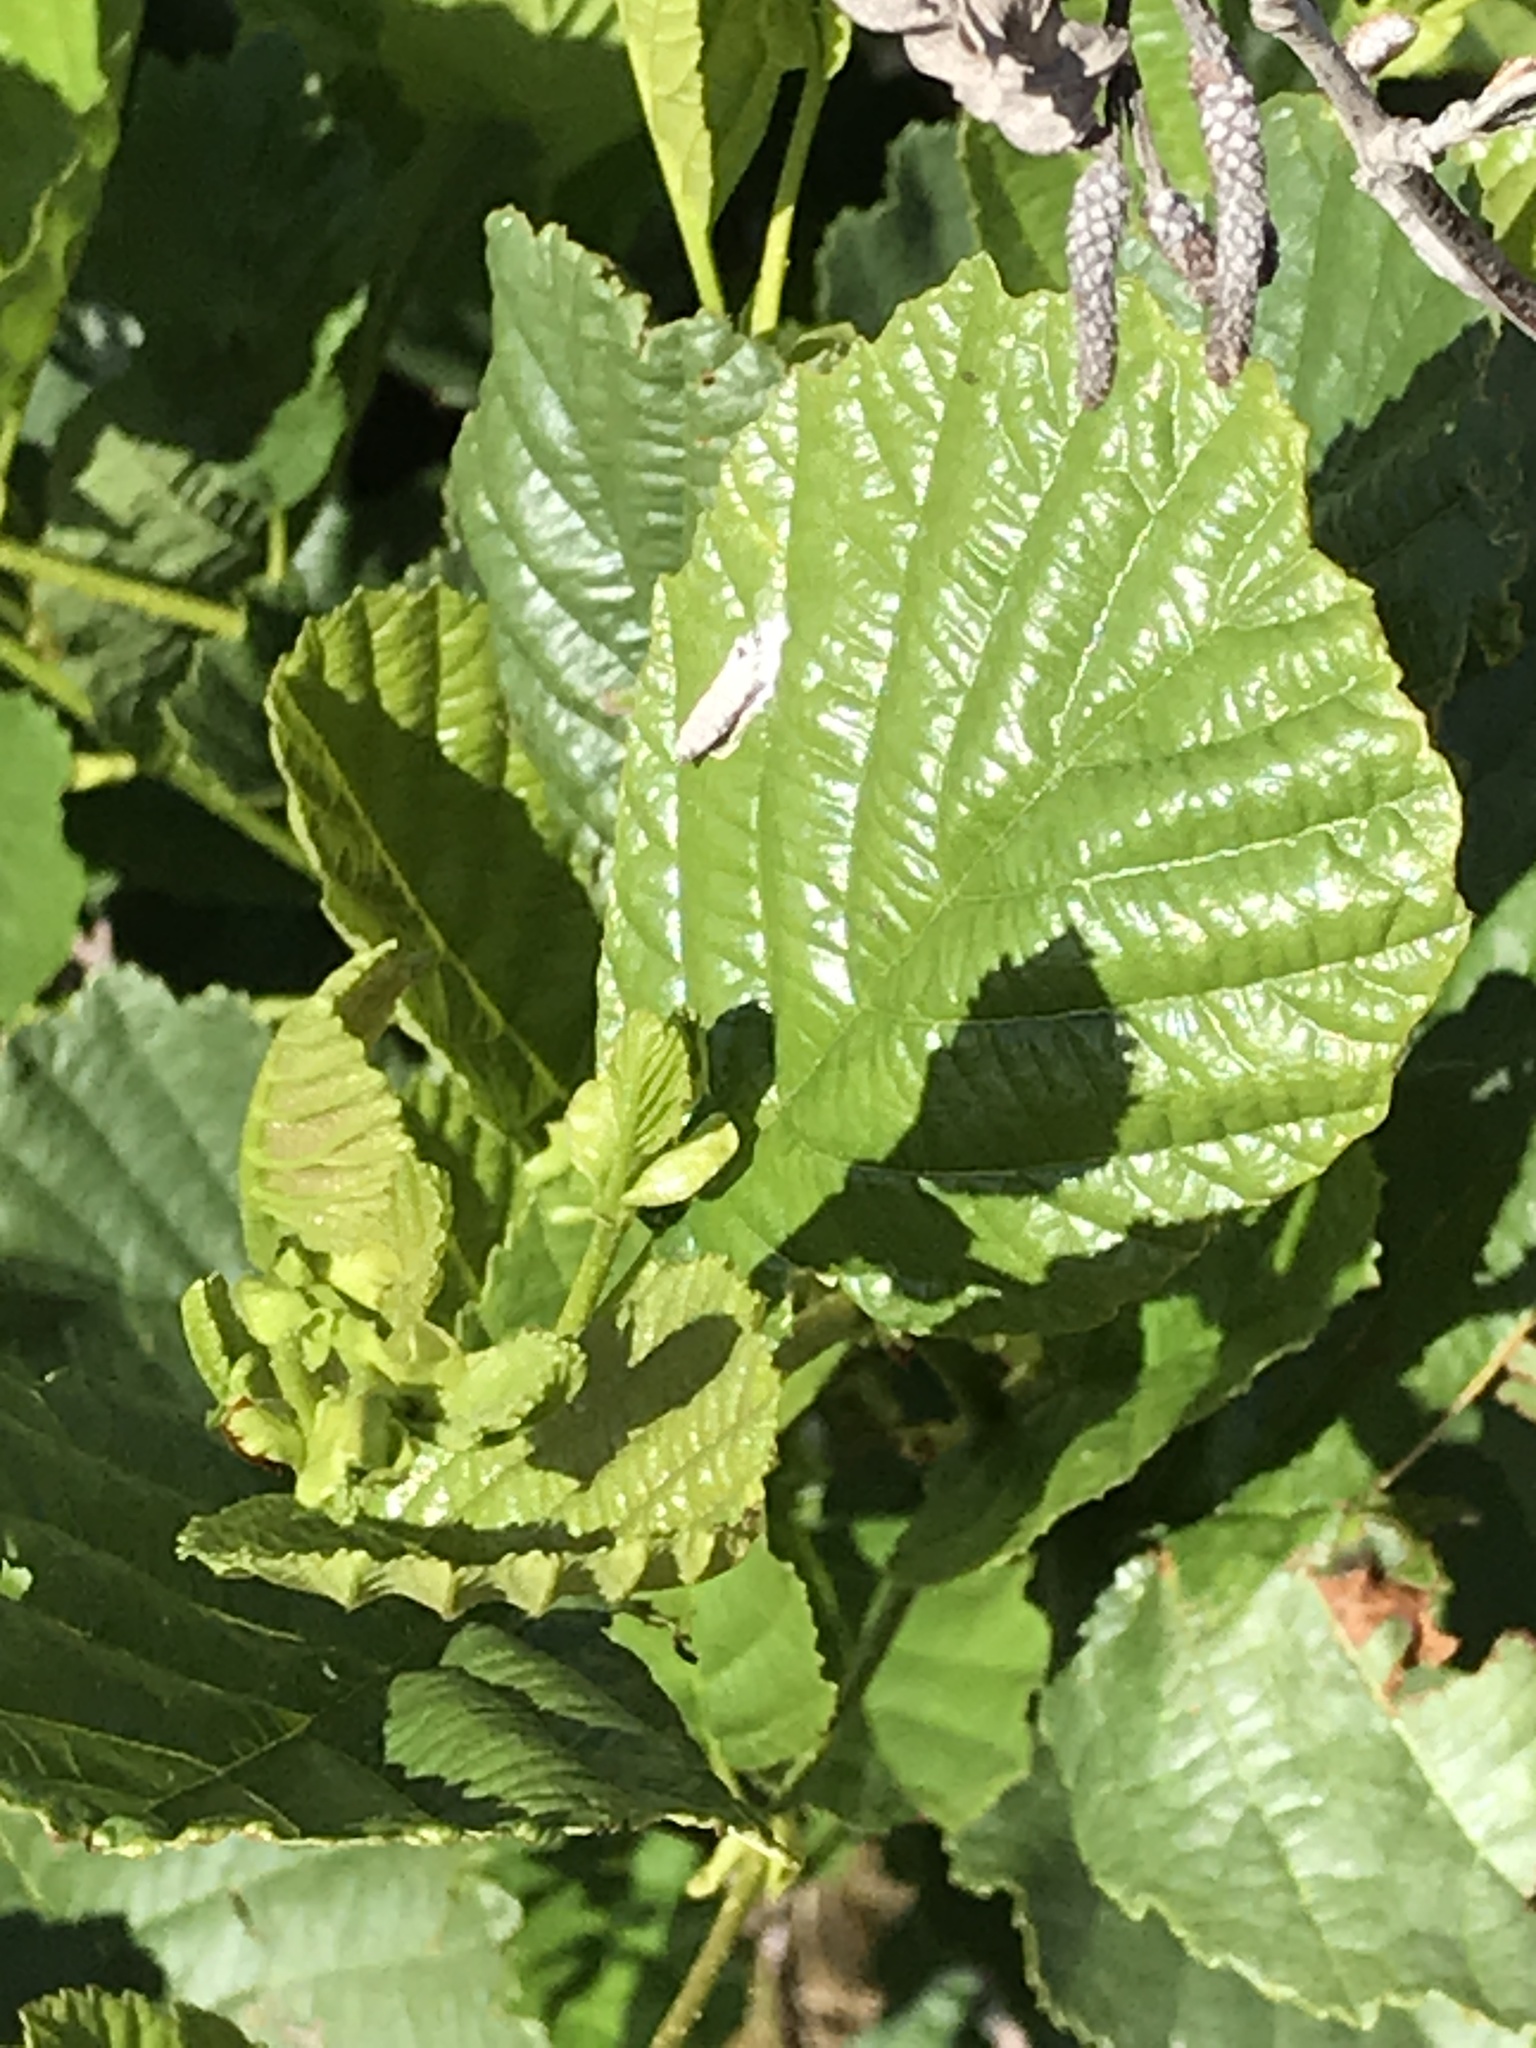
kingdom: Plantae
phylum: Tracheophyta
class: Magnoliopsida
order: Fagales
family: Betulaceae
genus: Alnus
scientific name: Alnus glutinosa
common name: Black alder
